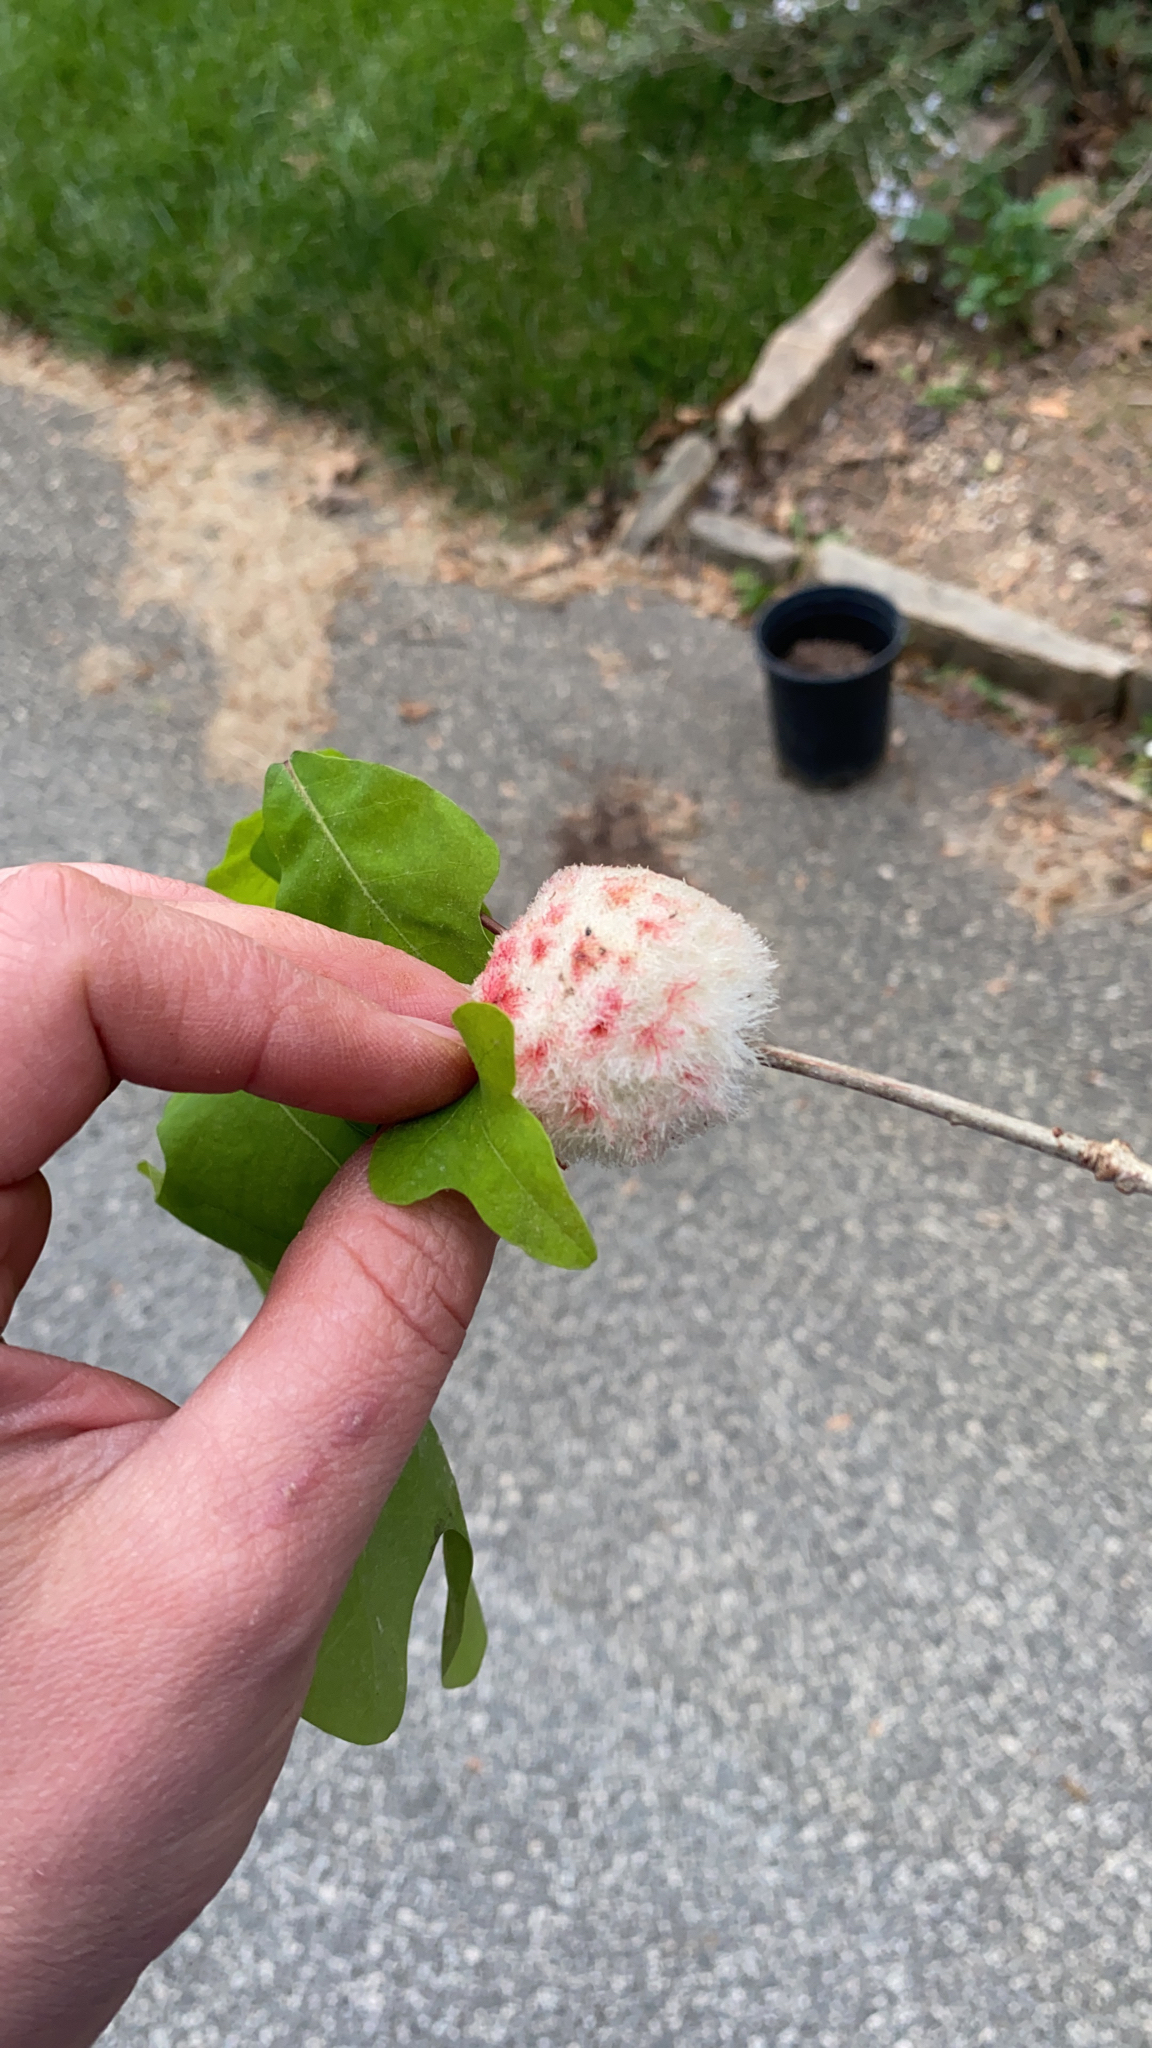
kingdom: Animalia
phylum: Arthropoda
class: Insecta
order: Hymenoptera
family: Cynipidae
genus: Callirhytis
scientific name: Callirhytis
